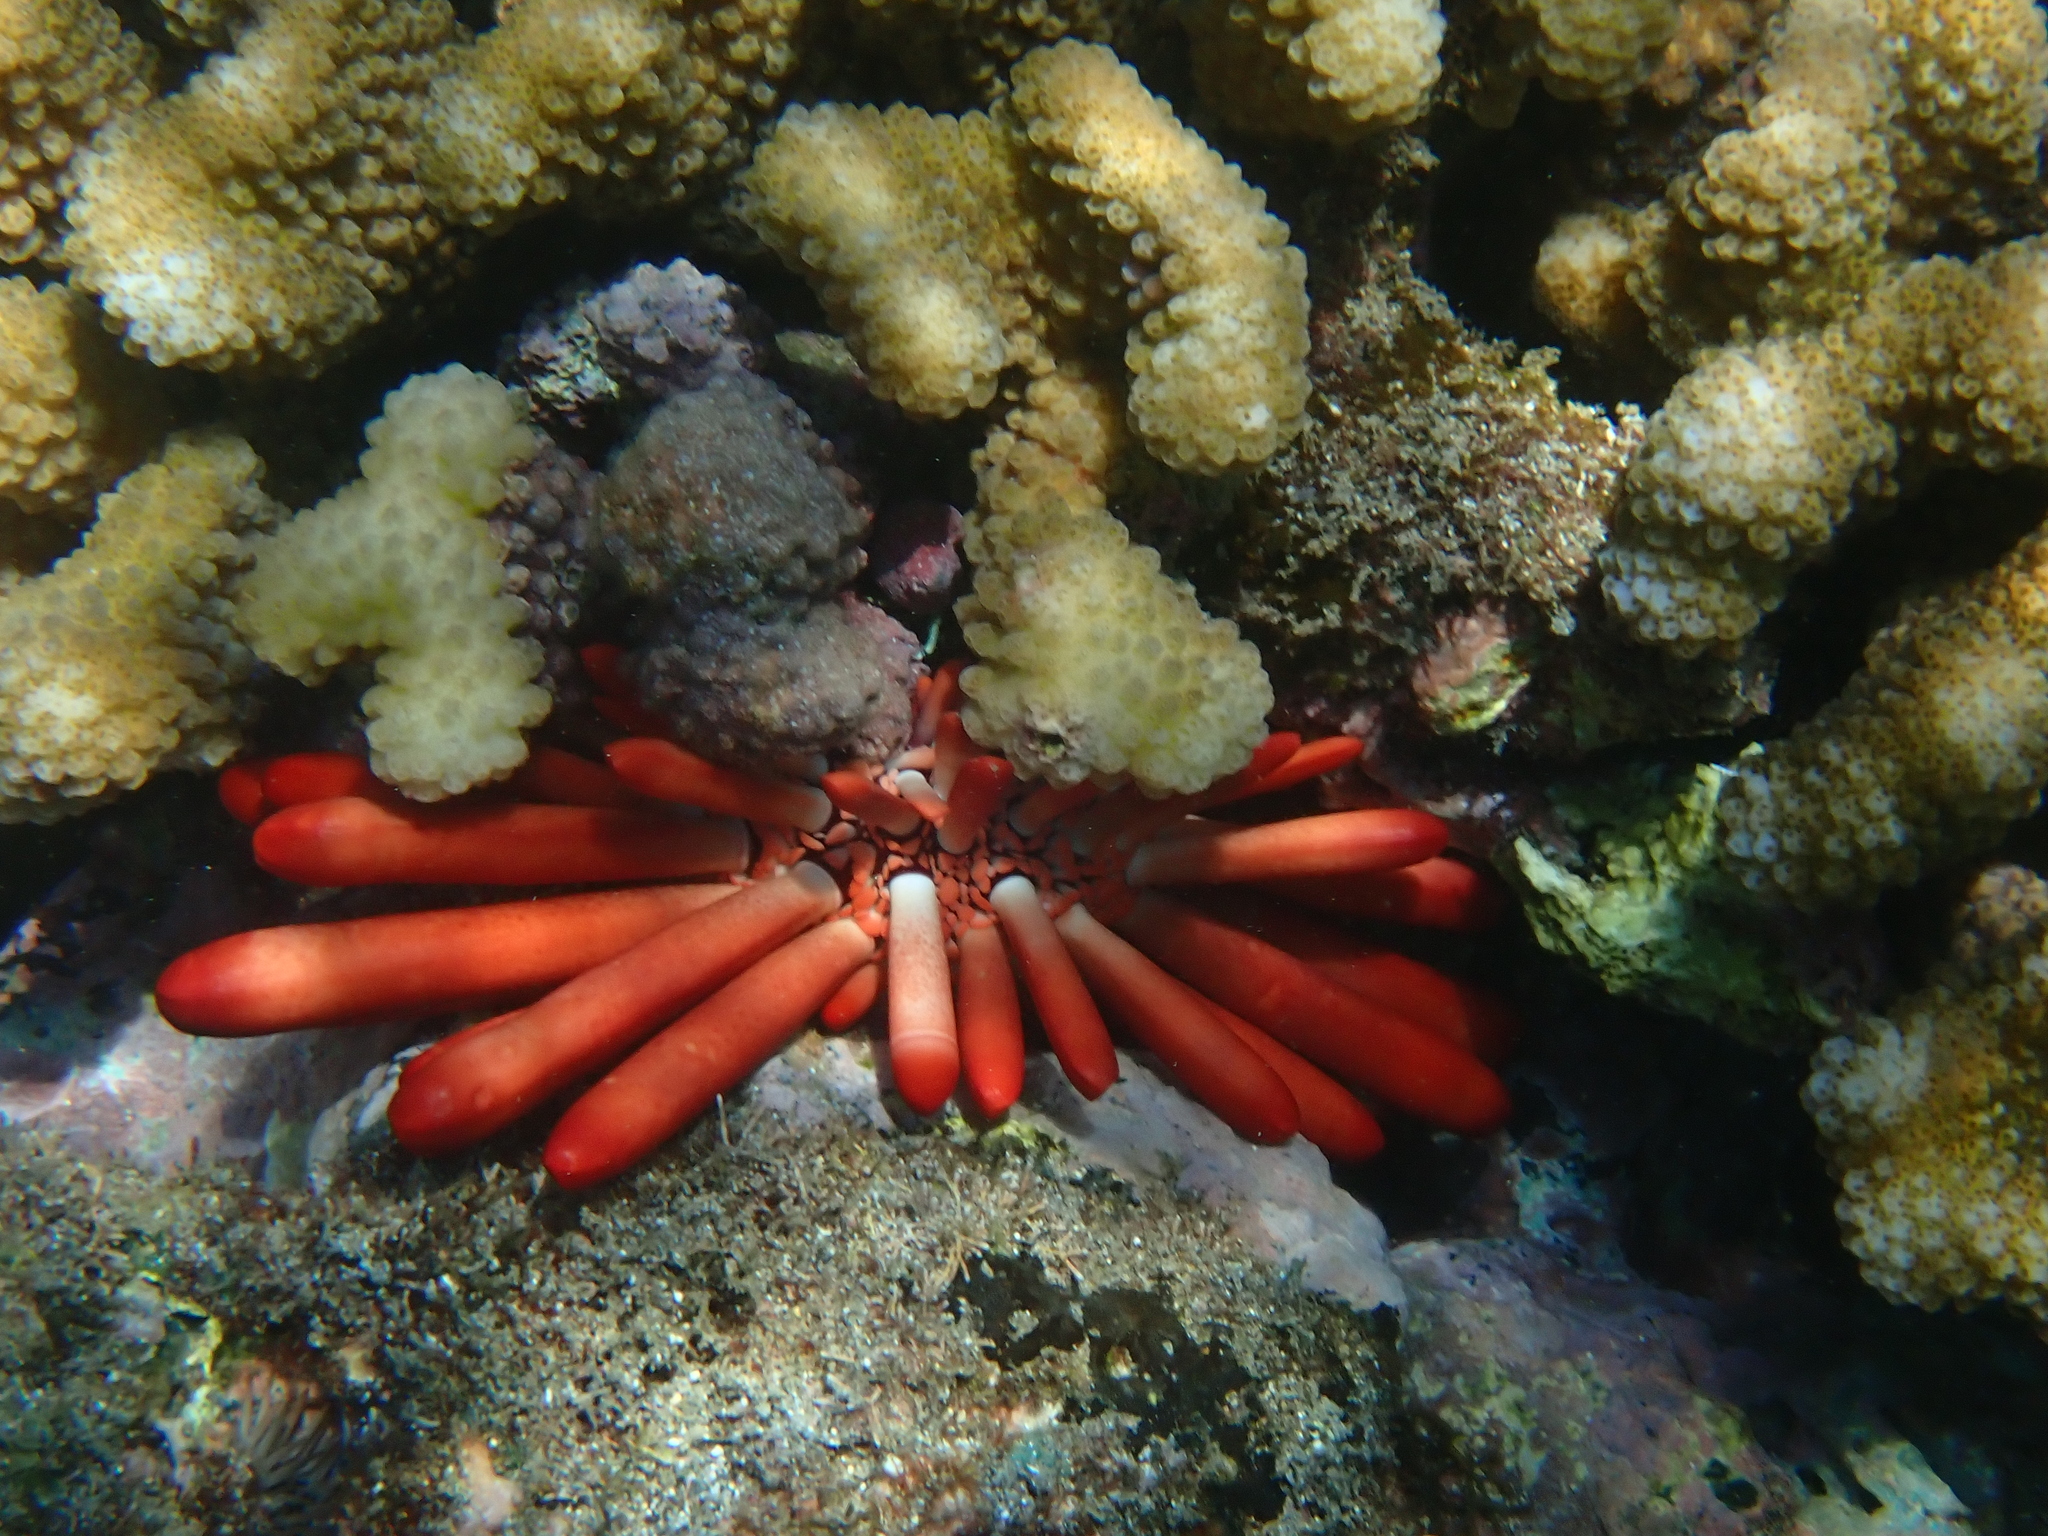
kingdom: Animalia
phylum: Echinodermata
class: Echinoidea
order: Camarodonta
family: Echinometridae
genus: Heterocentrotus
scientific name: Heterocentrotus mamillatus
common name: Slate pencil urchin
